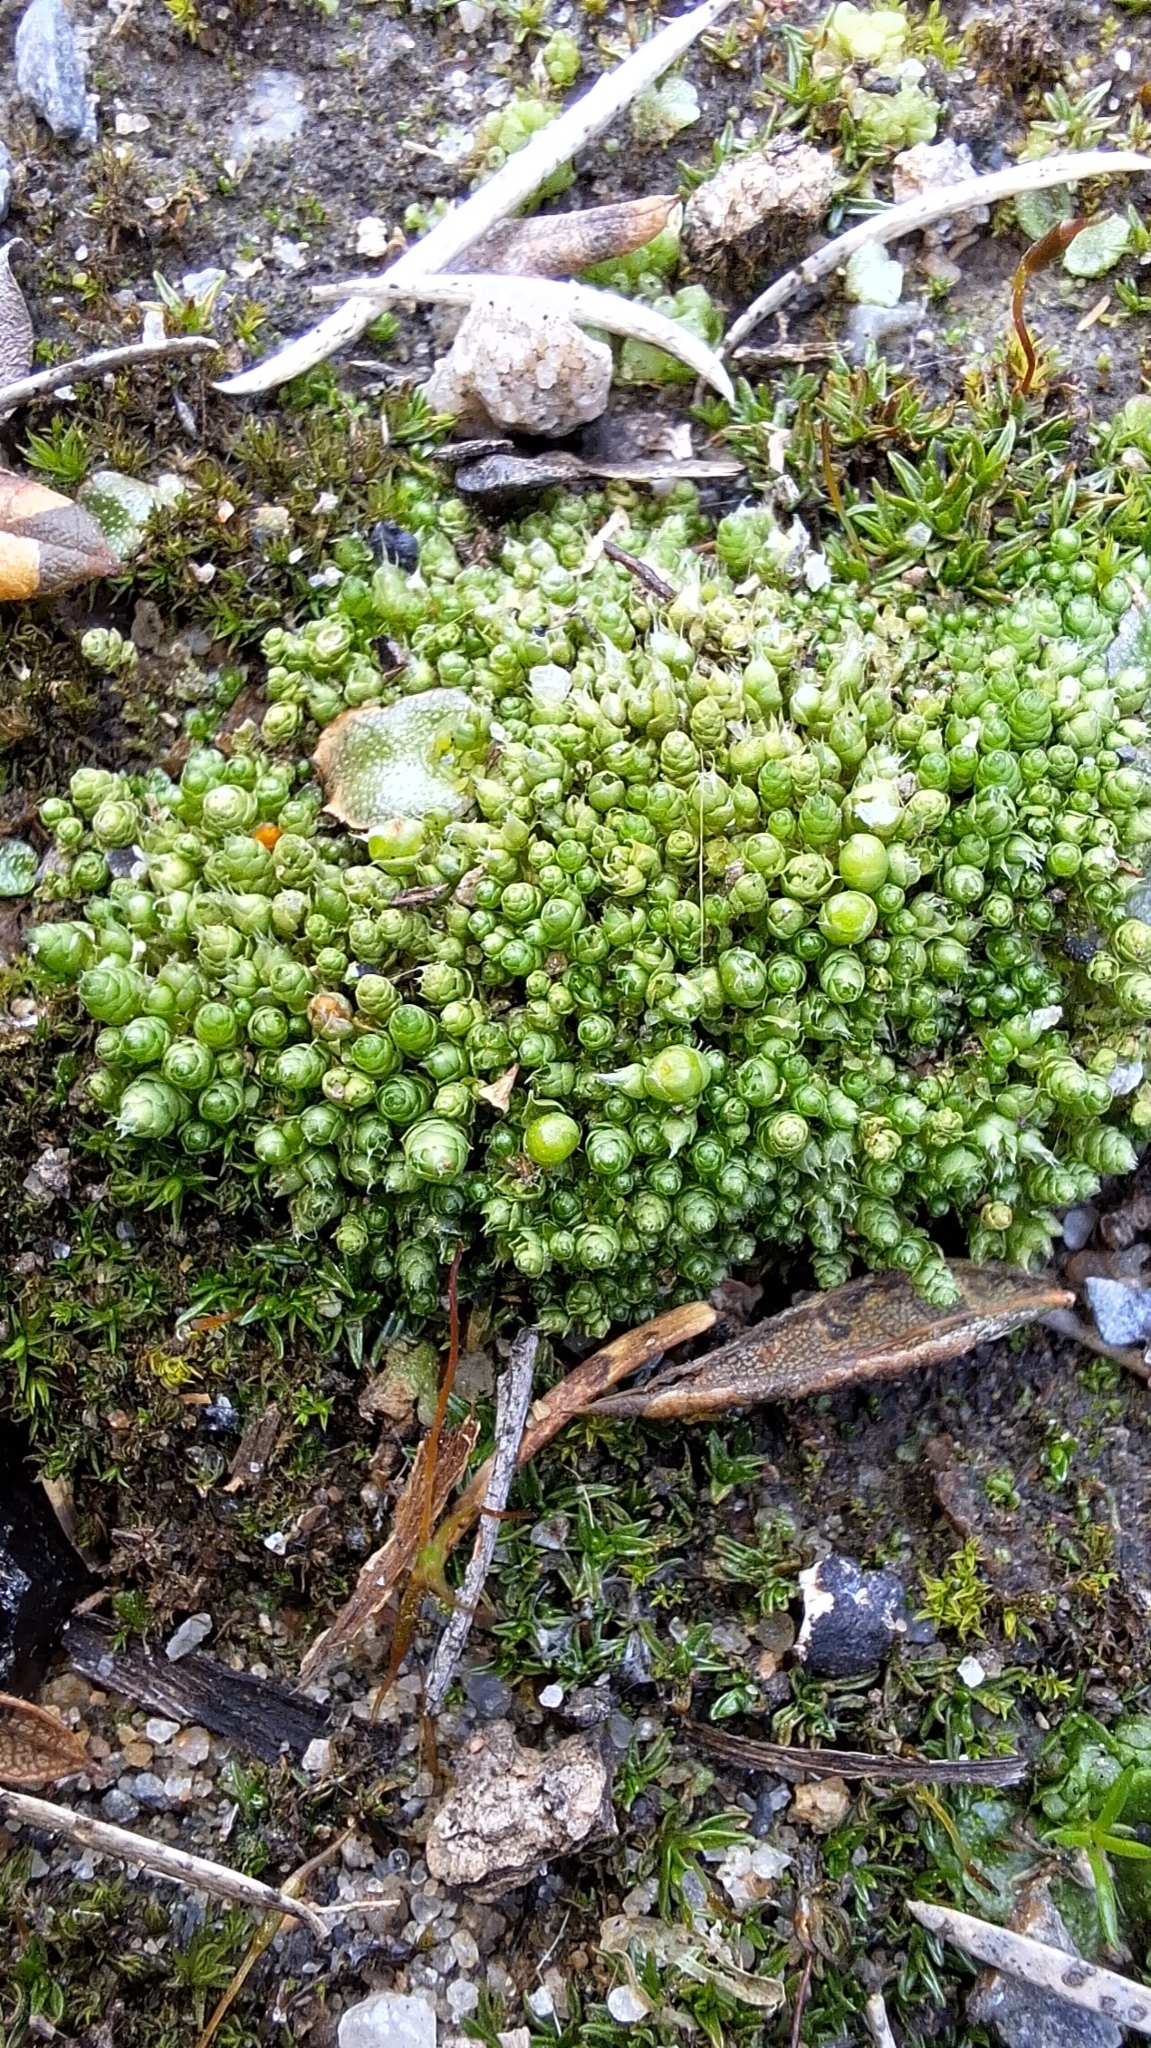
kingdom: Plantae
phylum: Bryophyta
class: Bryopsida
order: Gigaspermales
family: Gigaspermaceae
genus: Gigaspermum
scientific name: Gigaspermum repens
